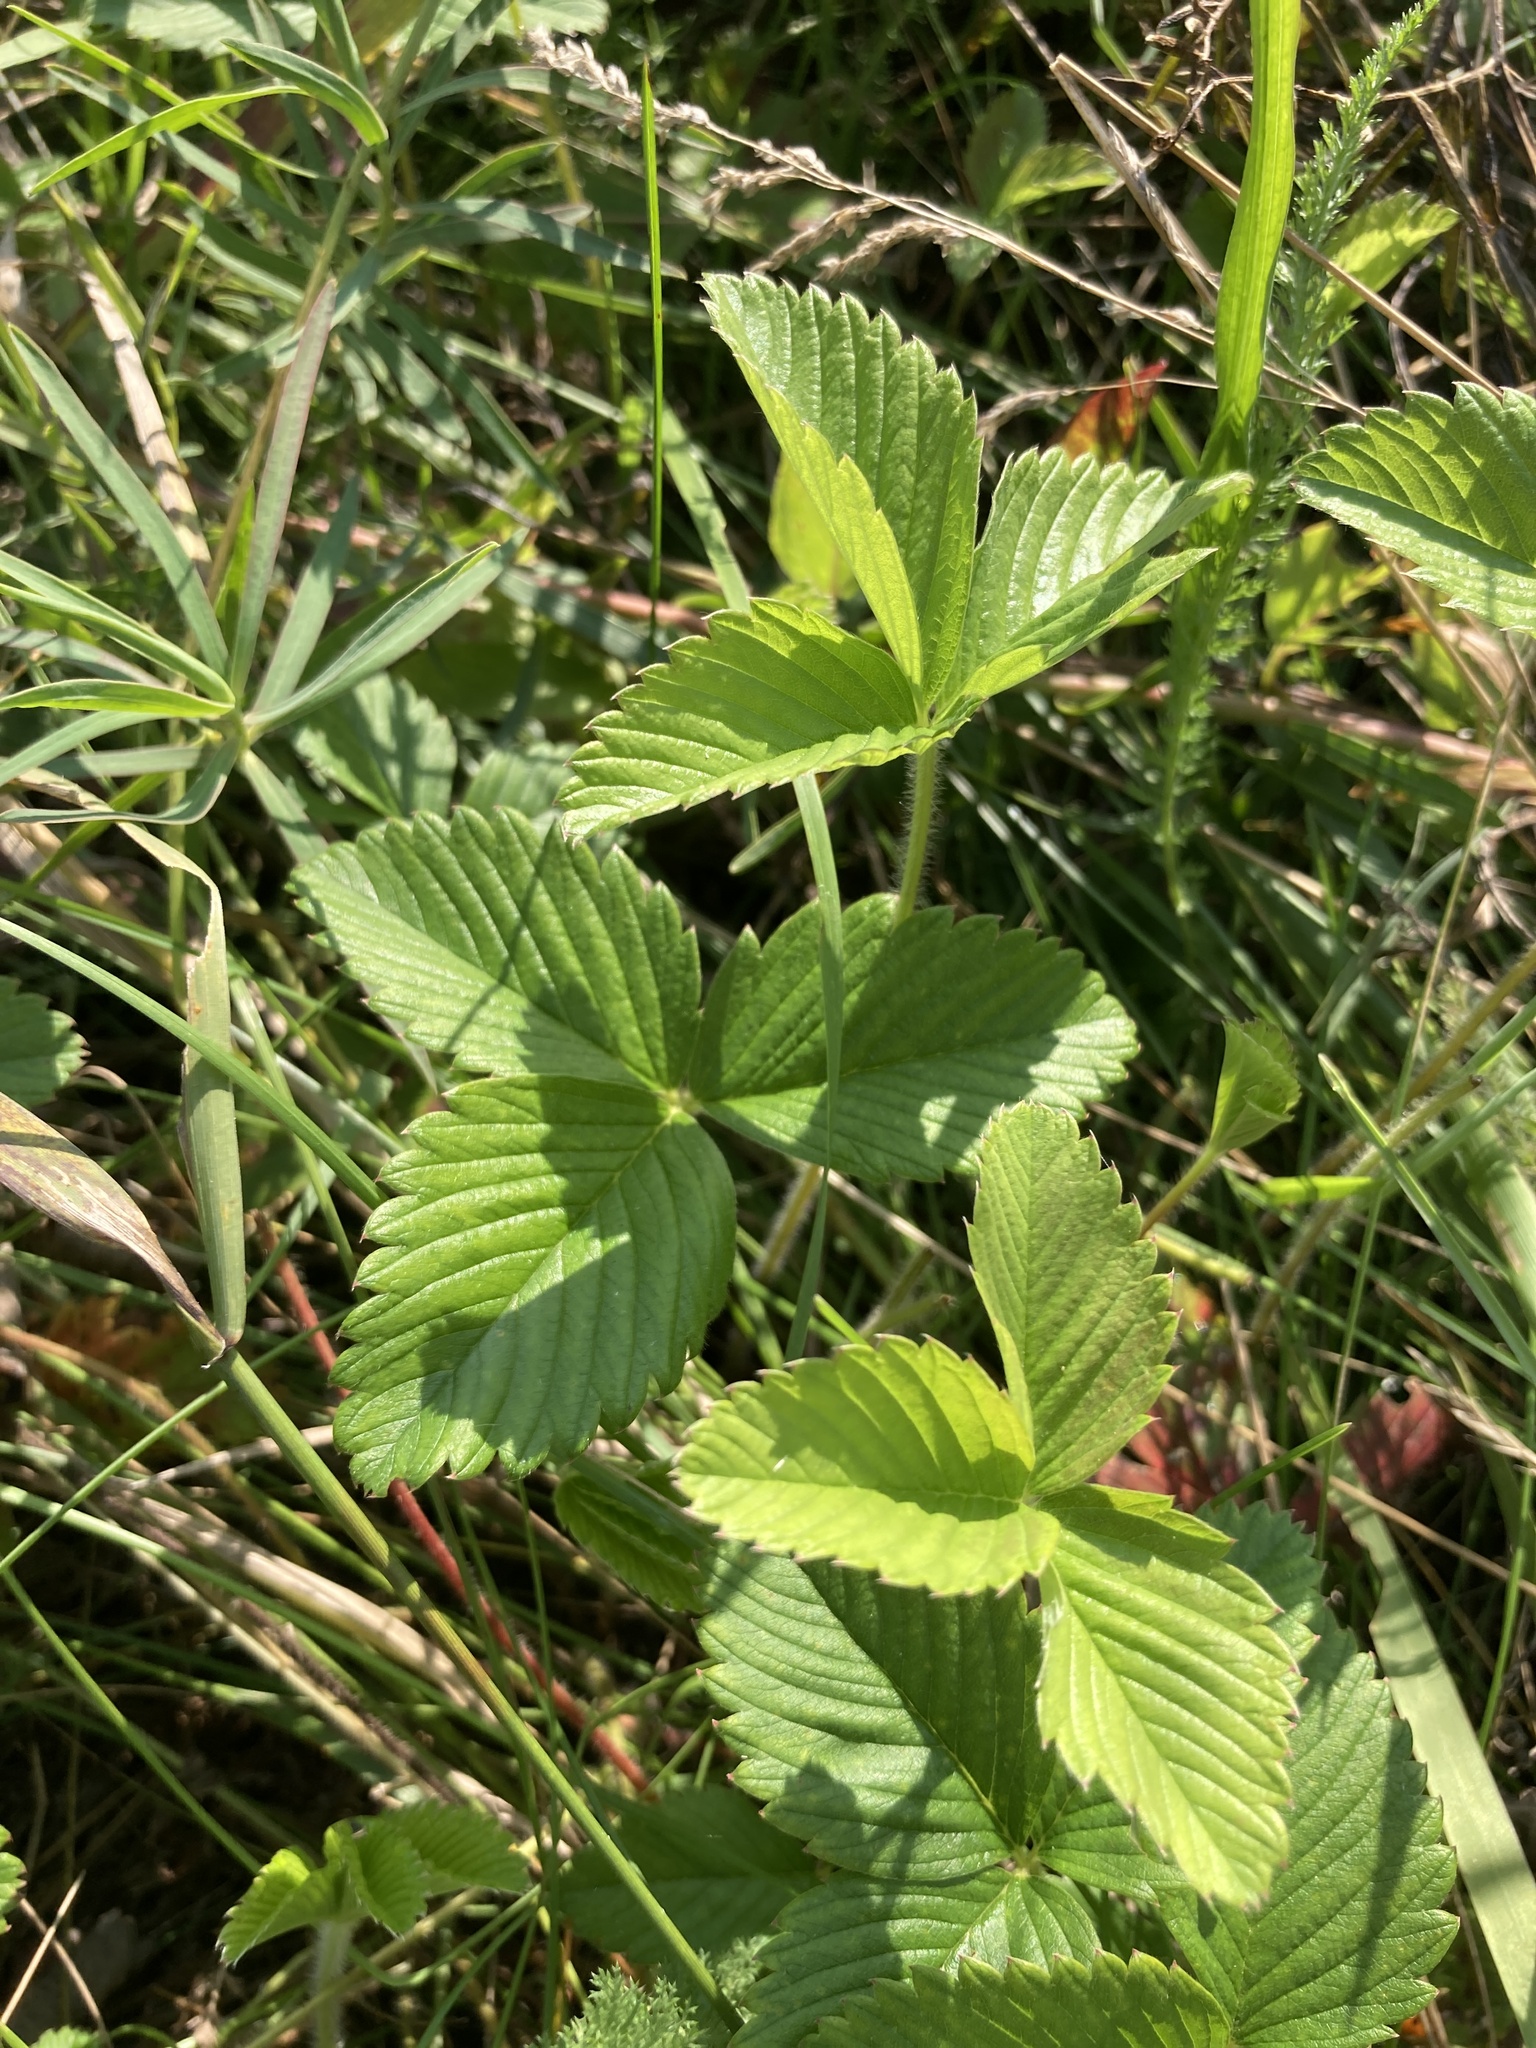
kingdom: Plantae
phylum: Tracheophyta
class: Magnoliopsida
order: Rosales
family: Rosaceae
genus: Fragaria
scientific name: Fragaria viridis
